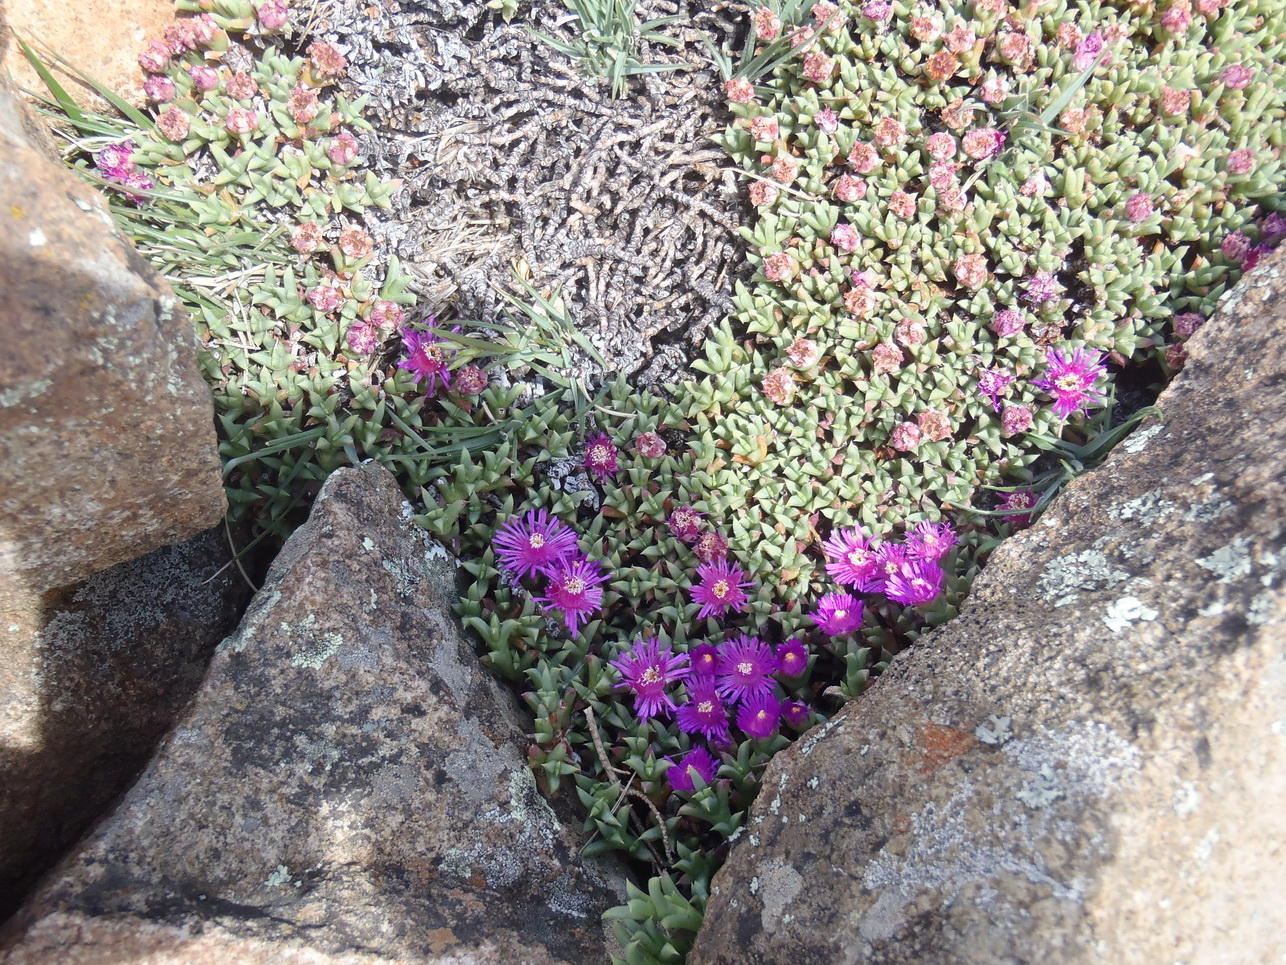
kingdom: Plantae
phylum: Tracheophyta
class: Magnoliopsida
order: Caryophyllales
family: Aizoaceae
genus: Ruschia
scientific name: Ruschia nonimpressa
